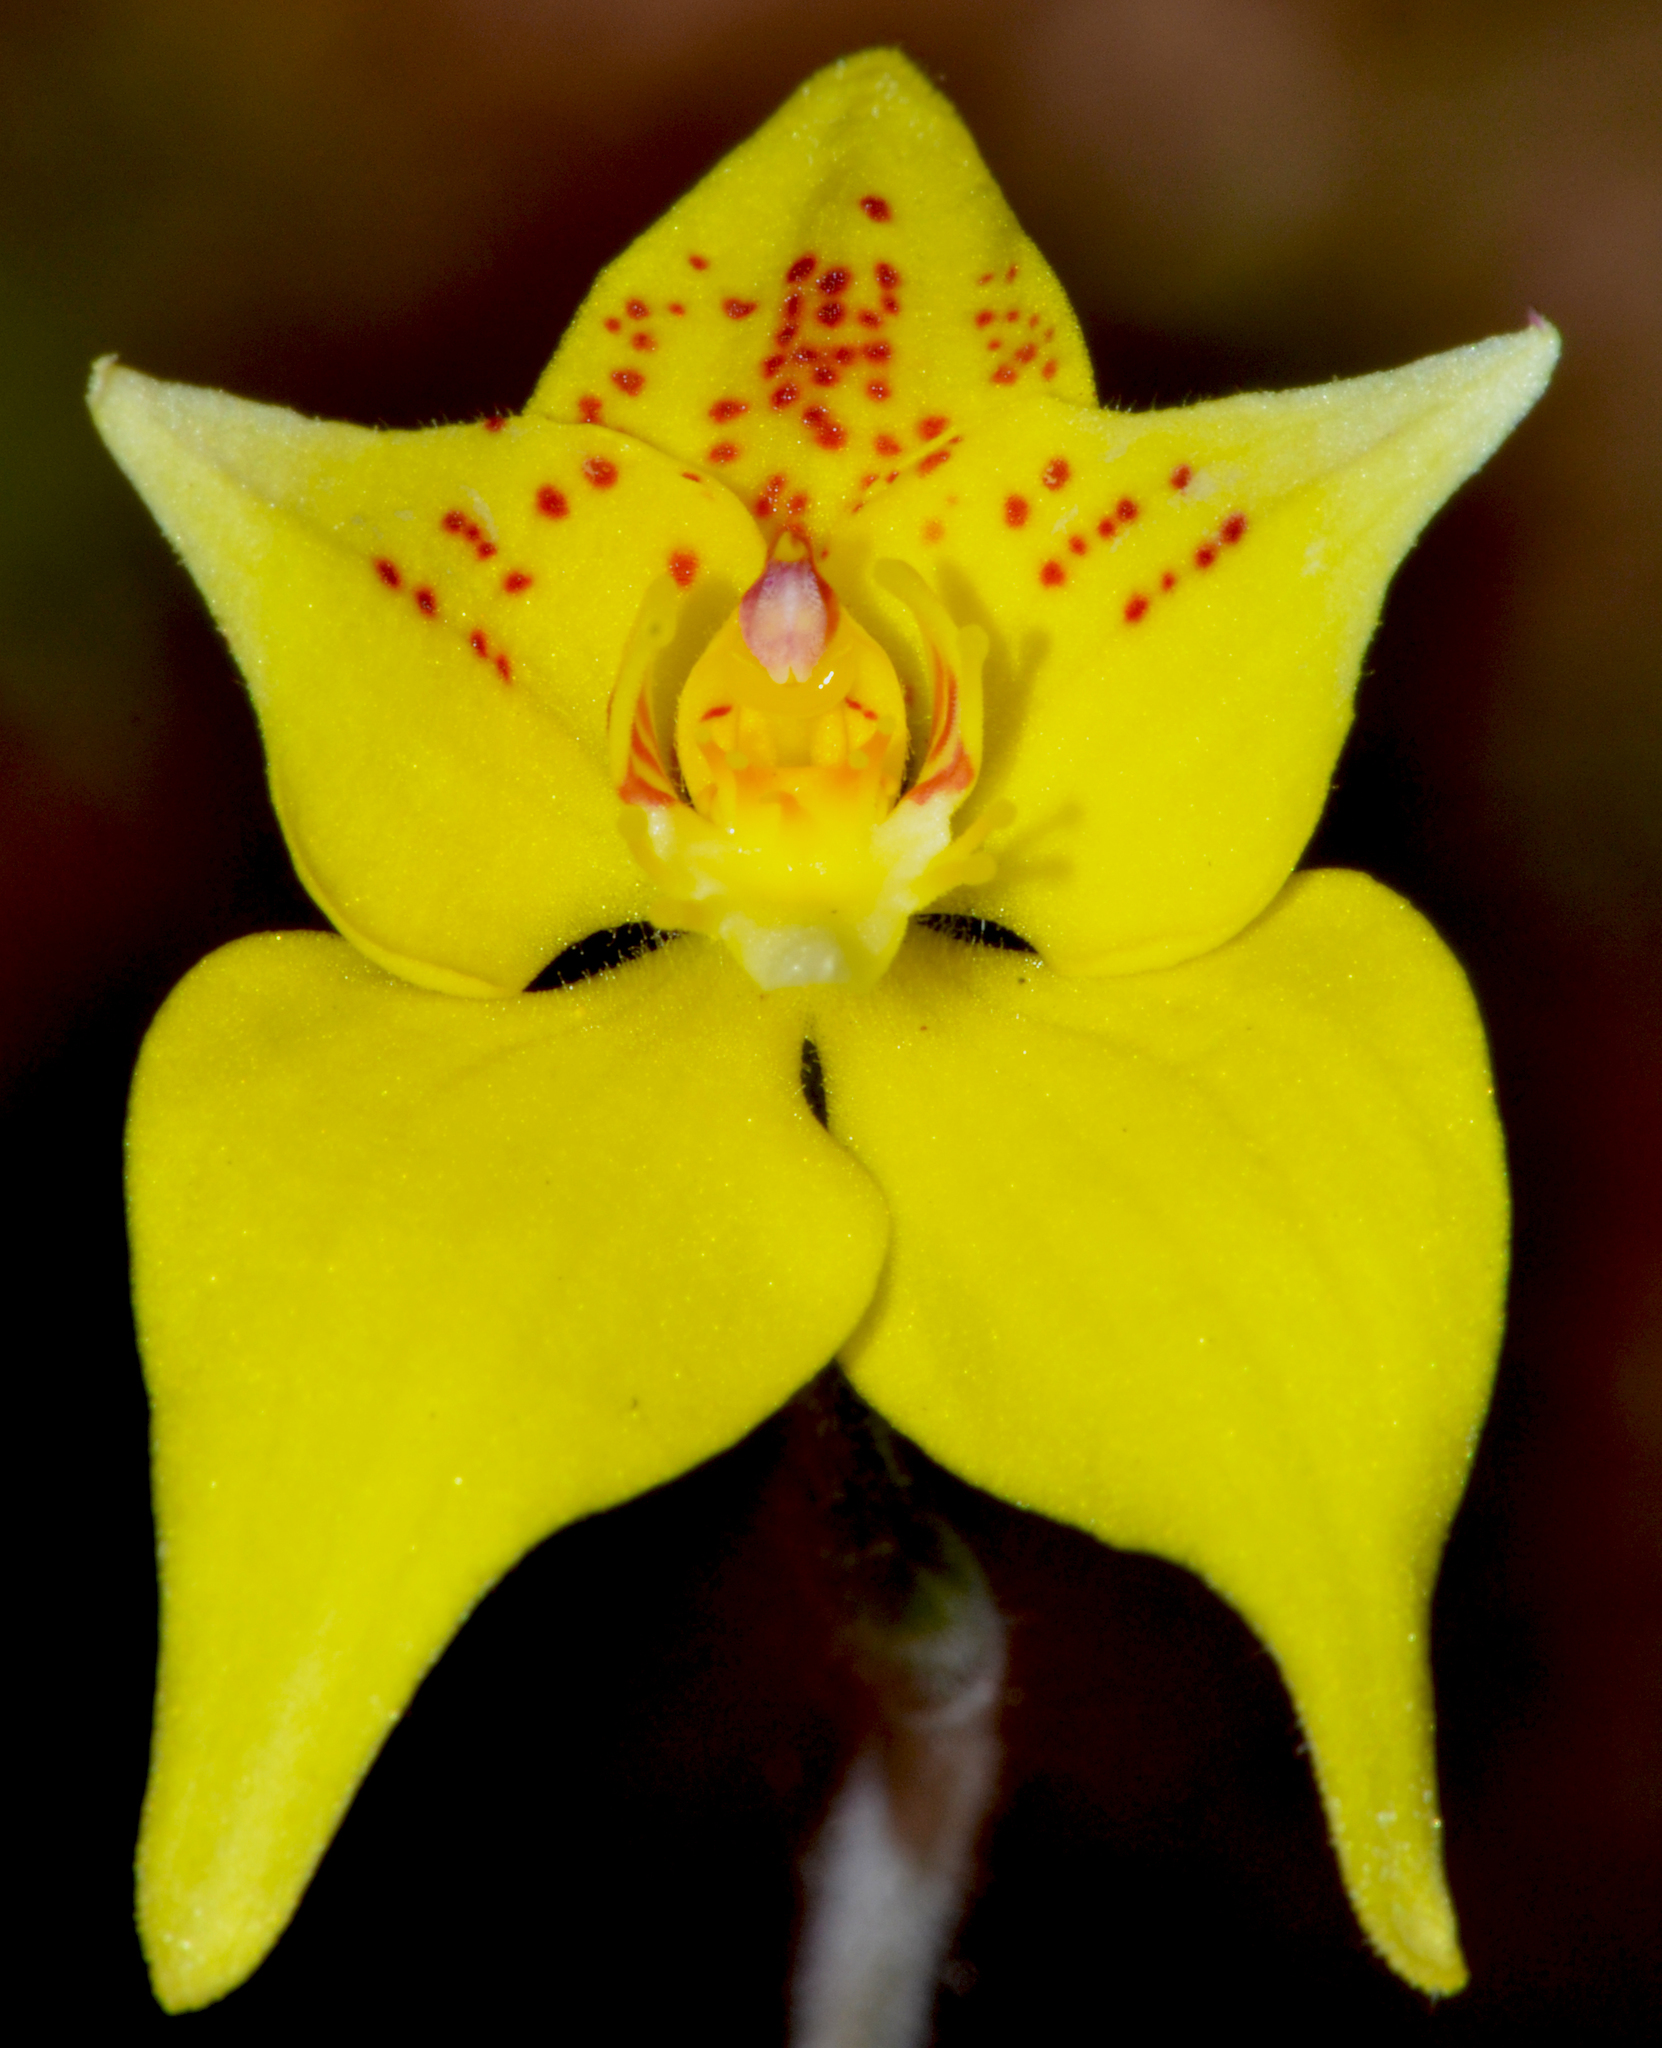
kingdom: Plantae
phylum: Tracheophyta
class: Liliopsida
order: Asparagales
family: Orchidaceae
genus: Caladenia
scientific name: Caladenia flava
